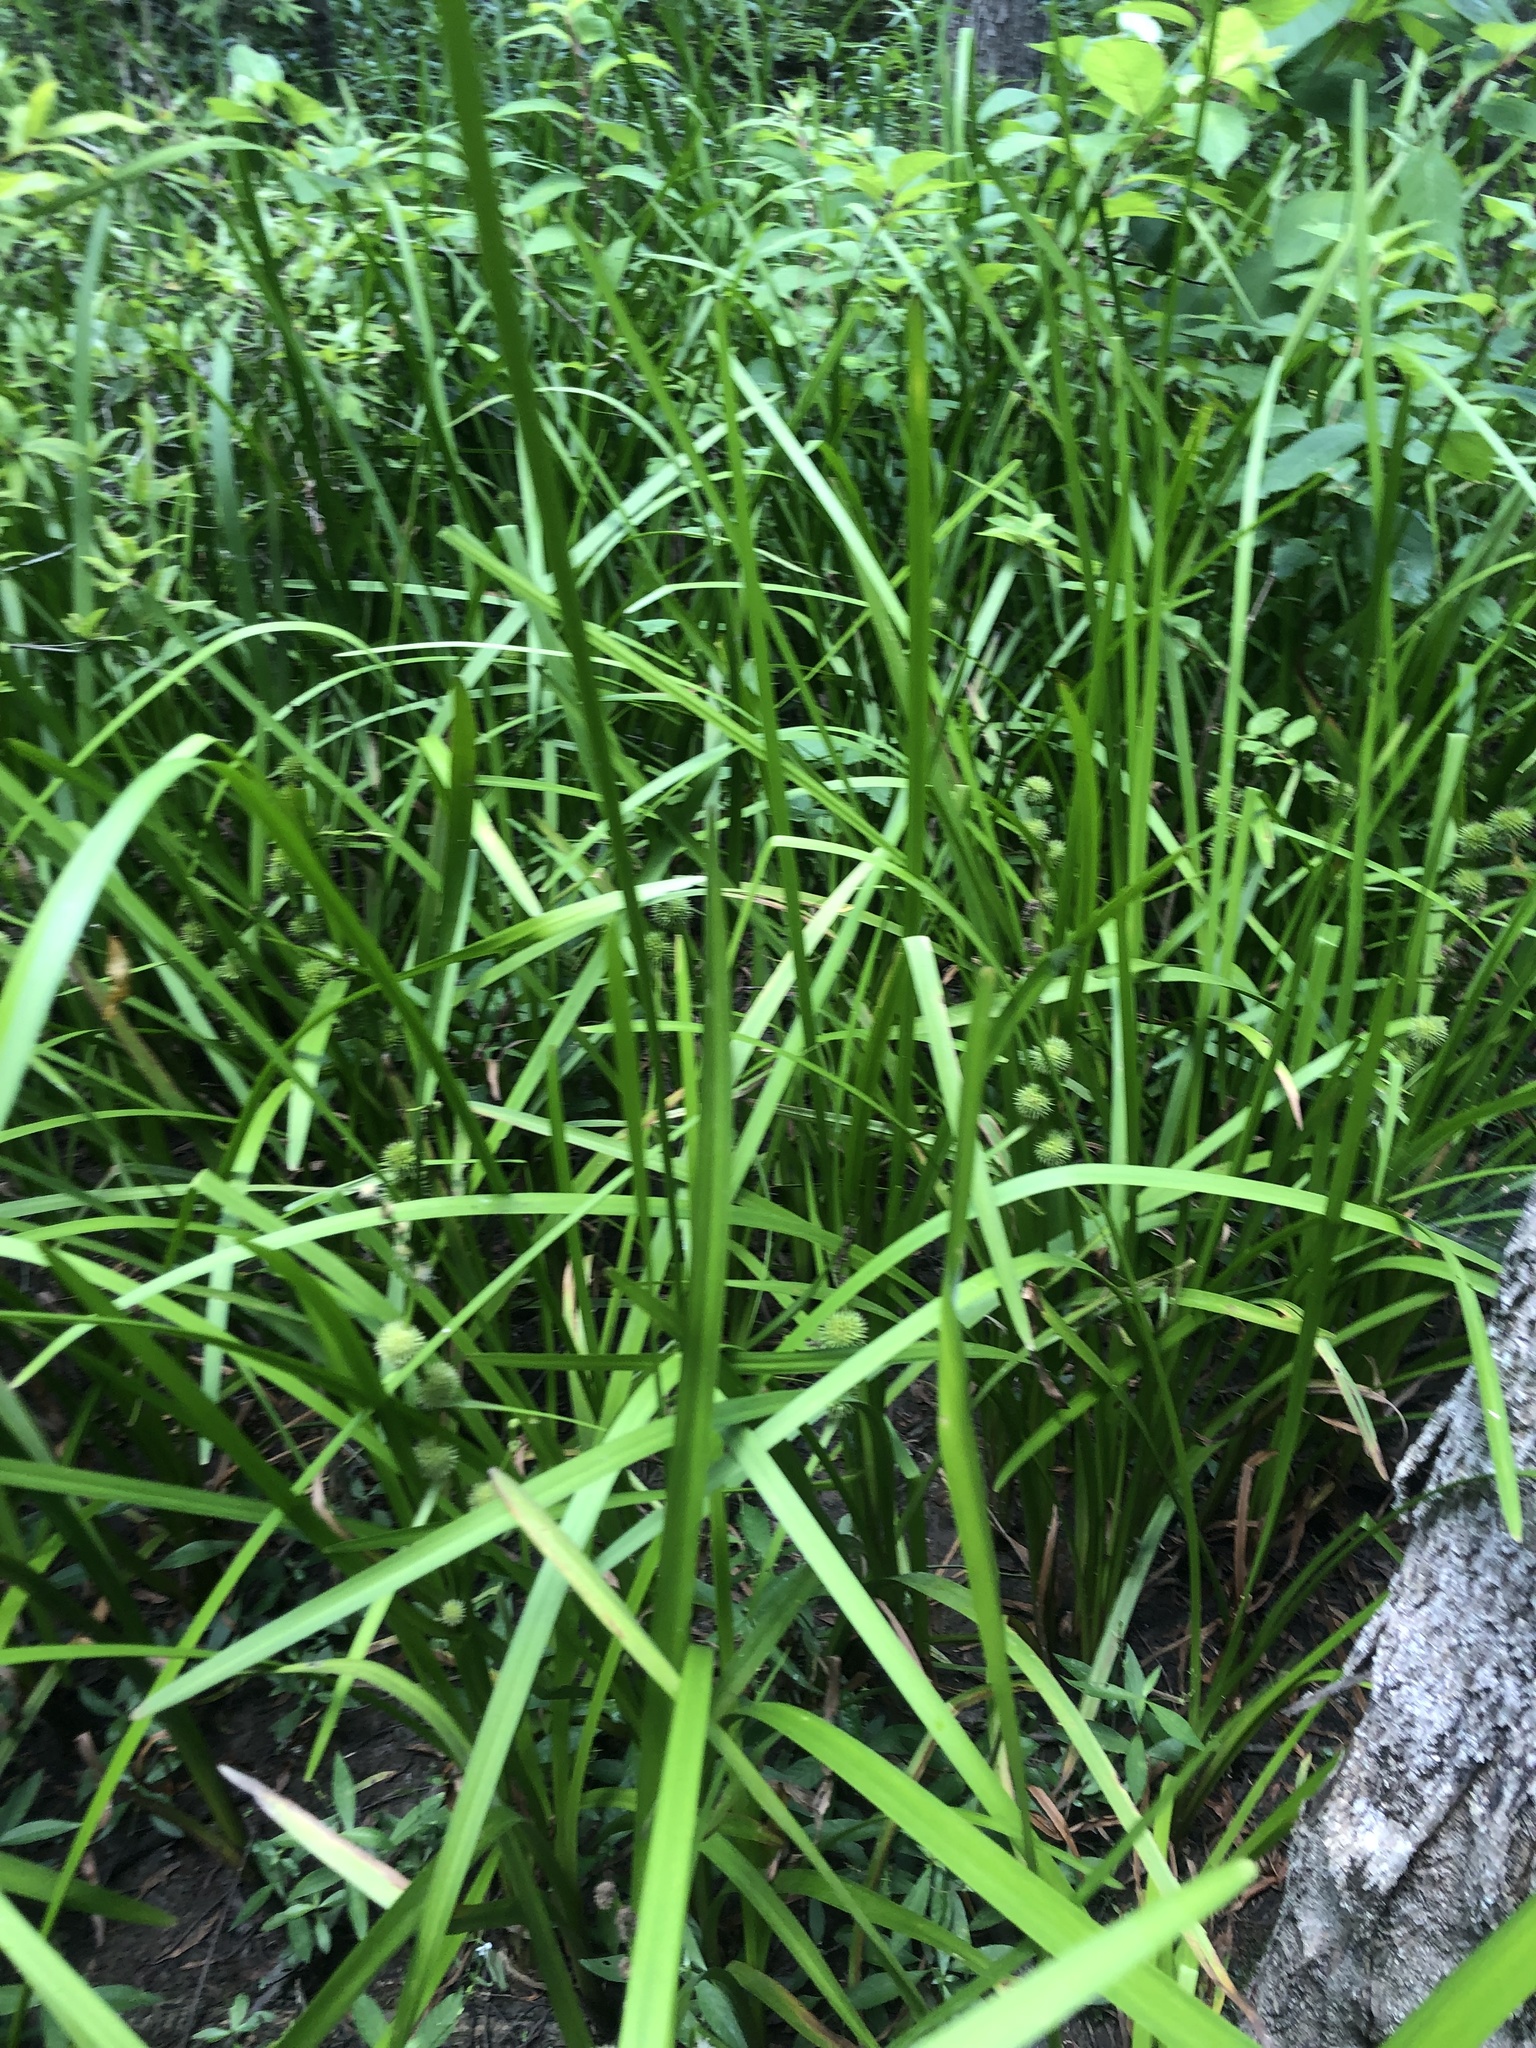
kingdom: Plantae
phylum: Tracheophyta
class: Liliopsida
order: Poales
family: Typhaceae
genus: Sparganium
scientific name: Sparganium americanum
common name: American burreed
